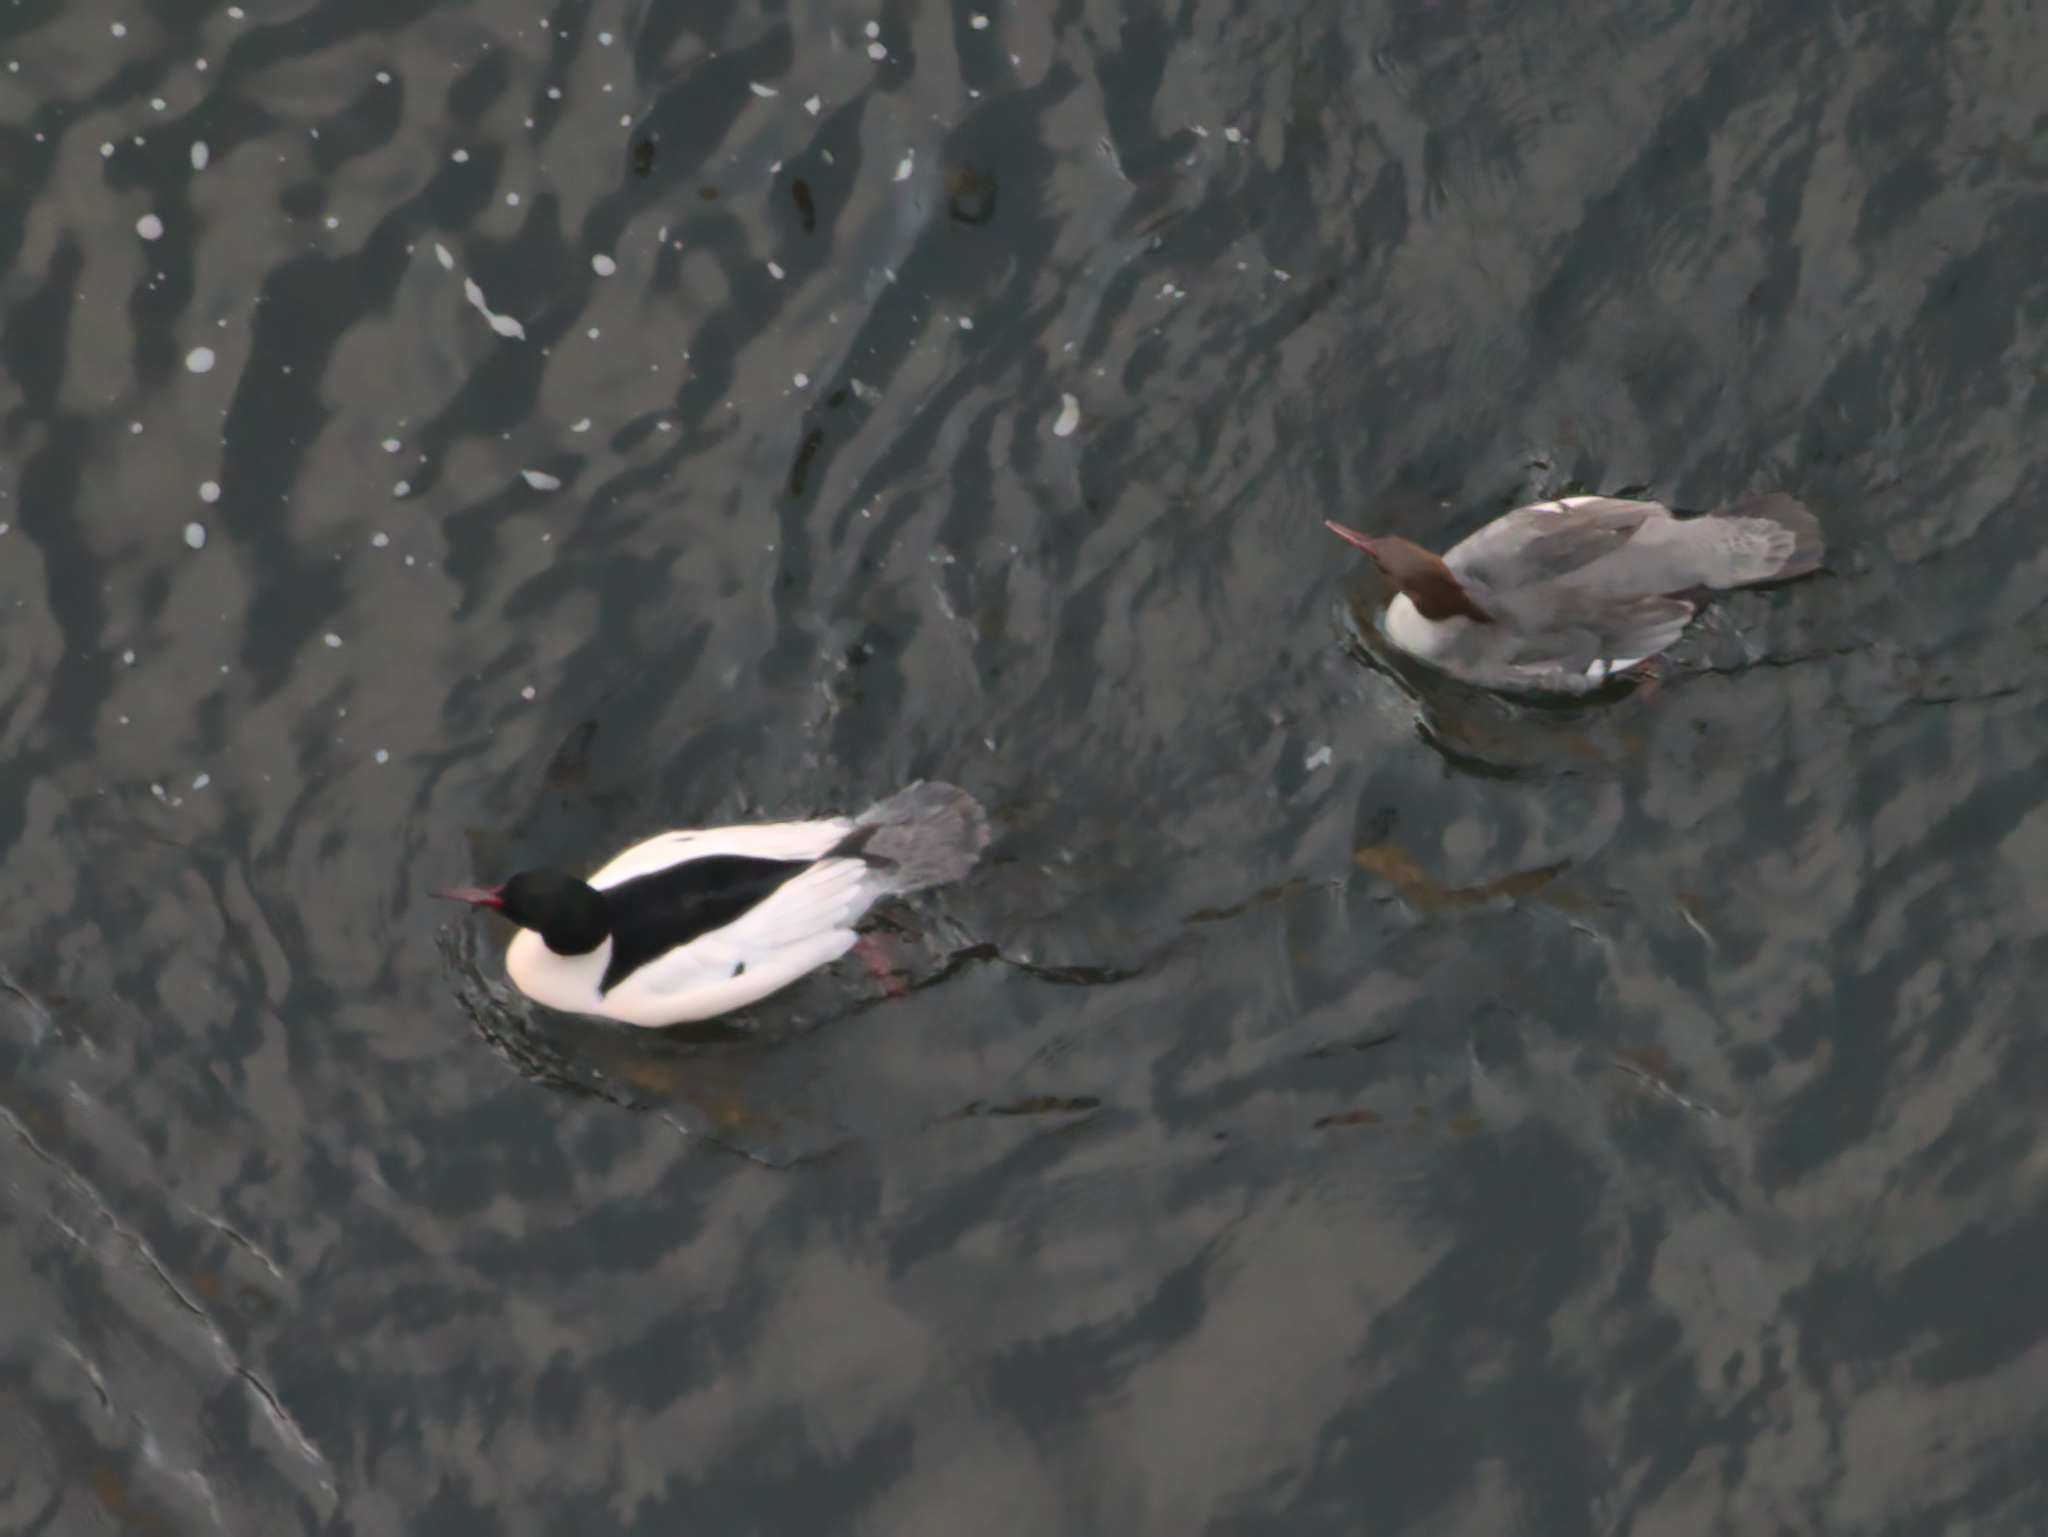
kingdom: Animalia
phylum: Chordata
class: Aves
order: Anseriformes
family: Anatidae
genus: Mergus
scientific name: Mergus merganser
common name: Common merganser
